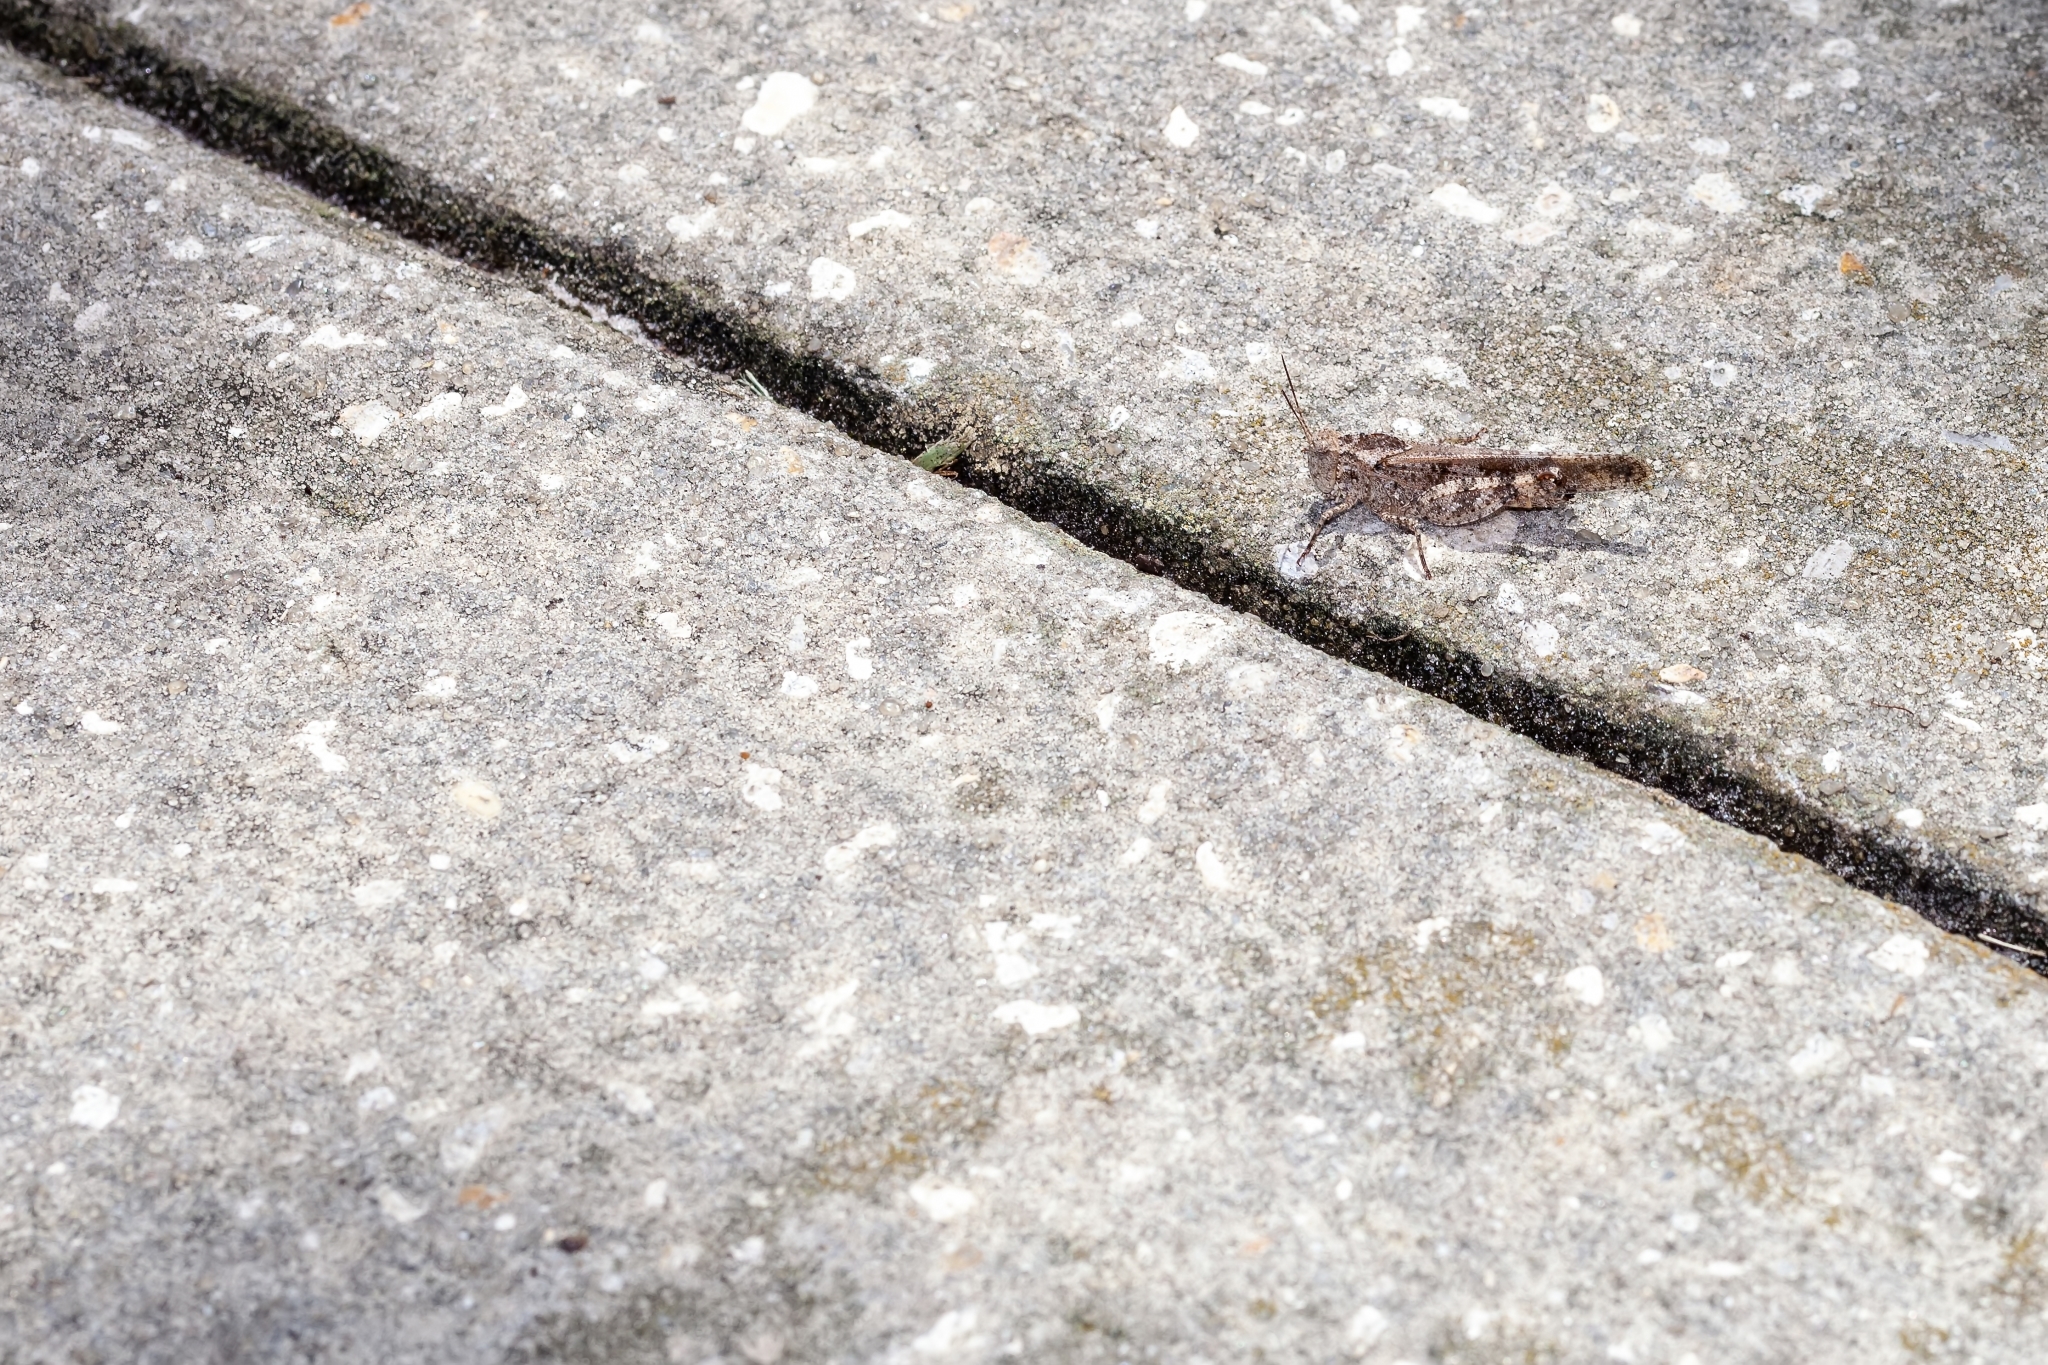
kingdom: Animalia
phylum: Arthropoda
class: Insecta
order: Orthoptera
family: Acrididae
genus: Spharagemon
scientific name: Spharagemon cristatum
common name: Ridgeback sand grasshopper
